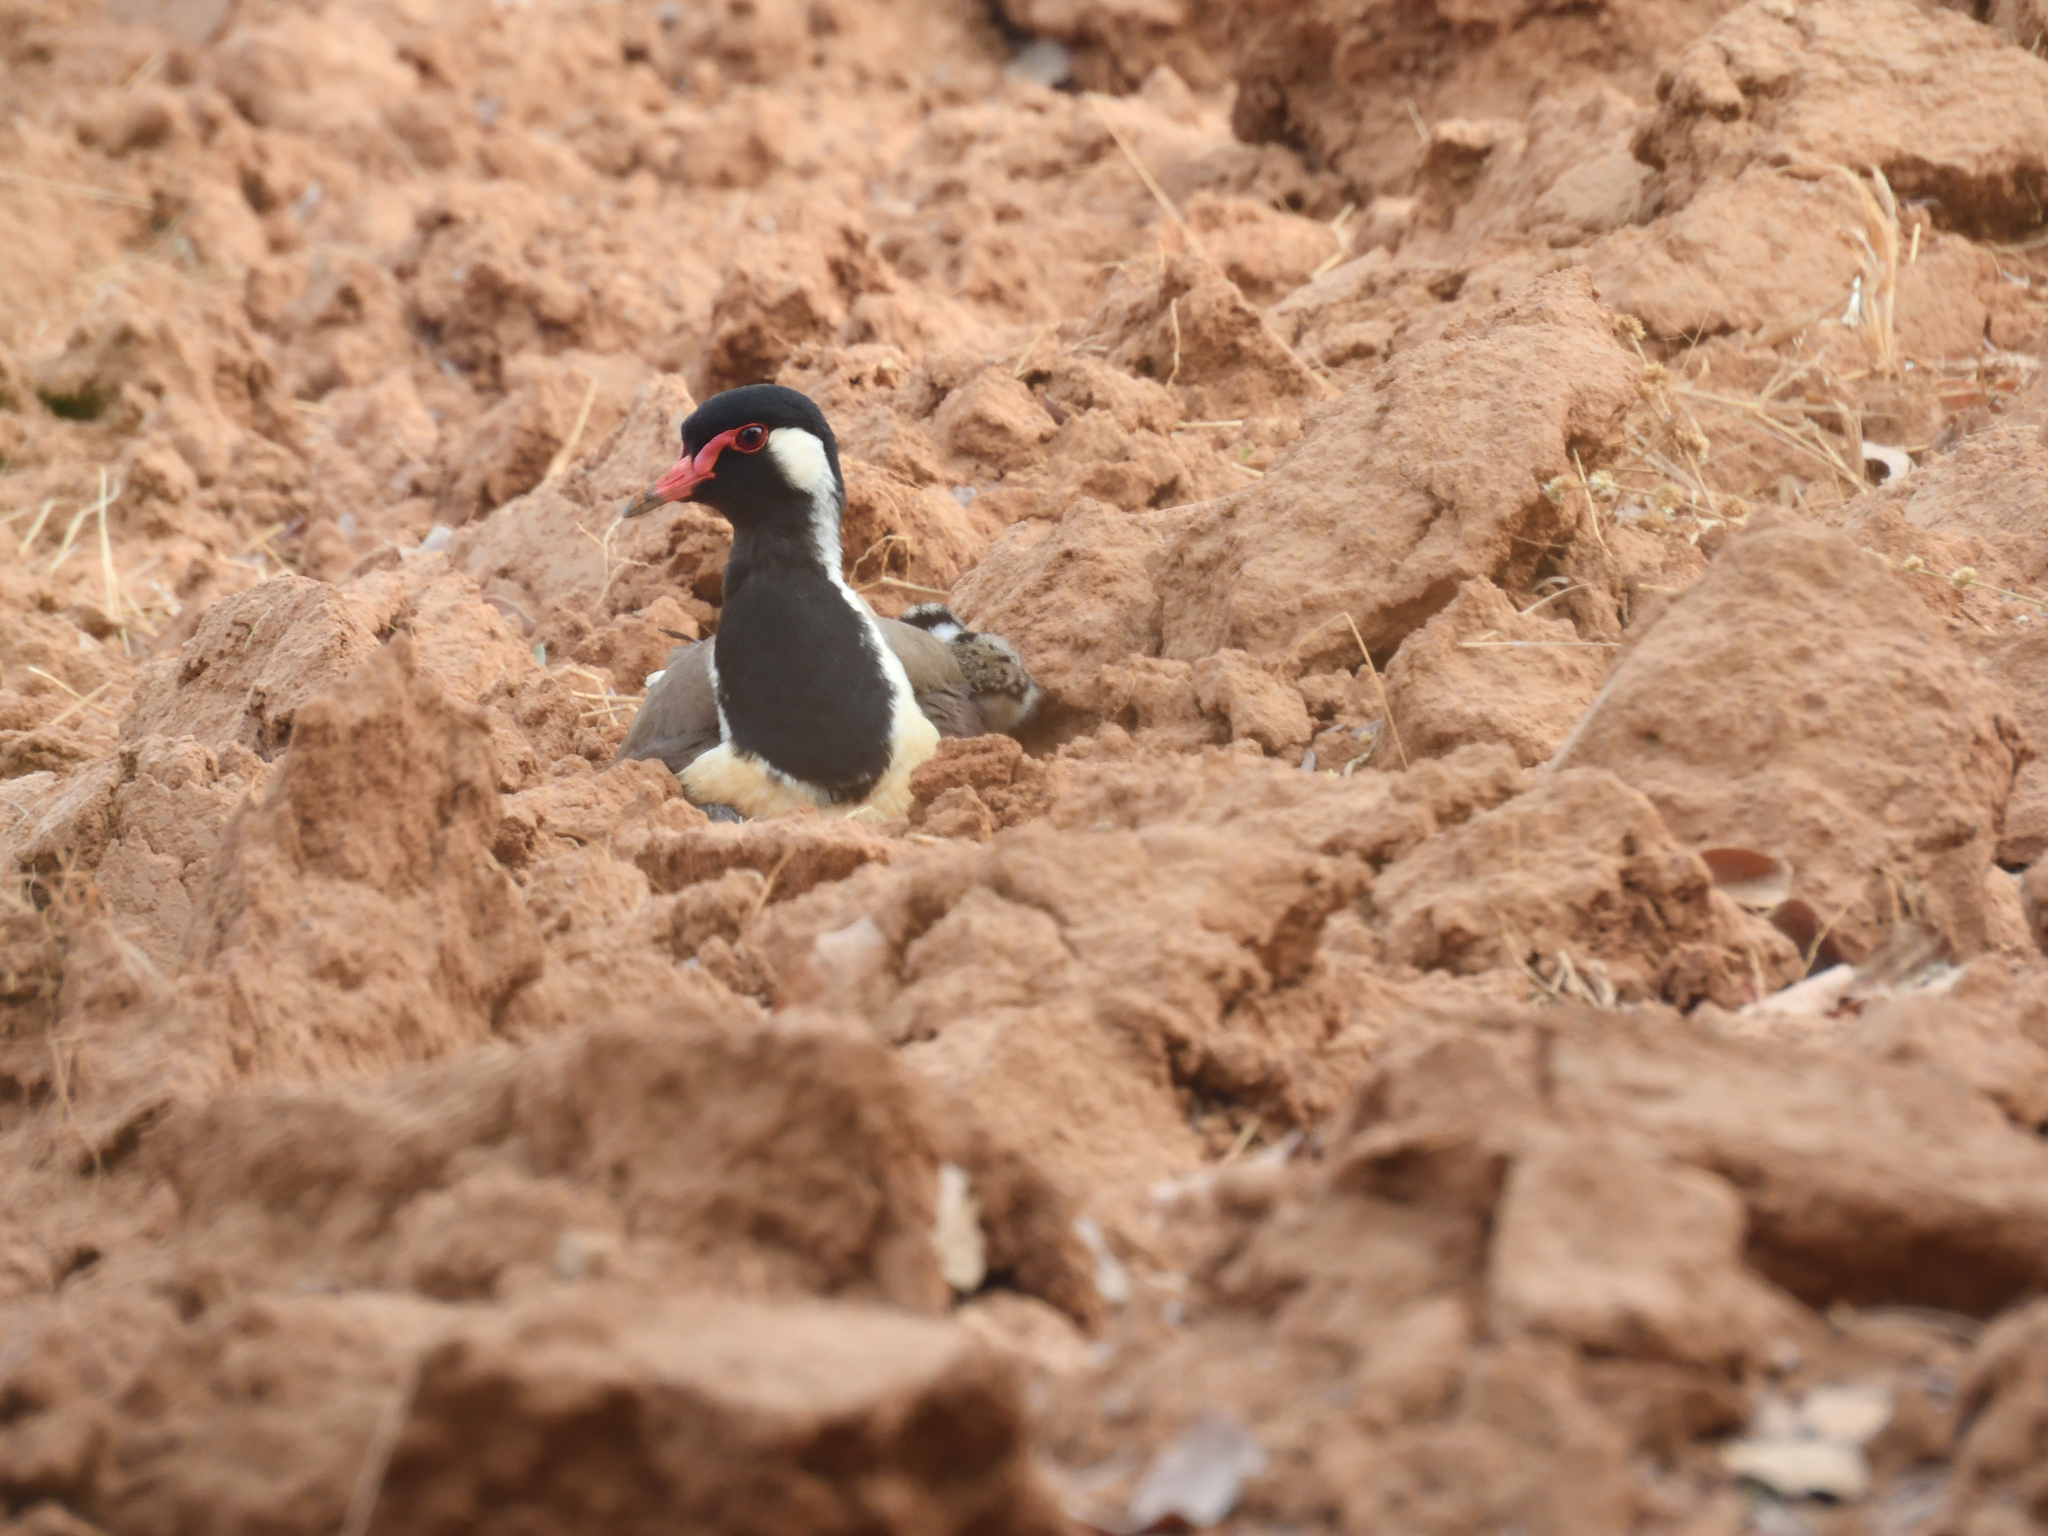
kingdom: Animalia
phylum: Chordata
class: Aves
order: Charadriiformes
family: Charadriidae
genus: Vanellus
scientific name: Vanellus indicus
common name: Red-wattled lapwing
